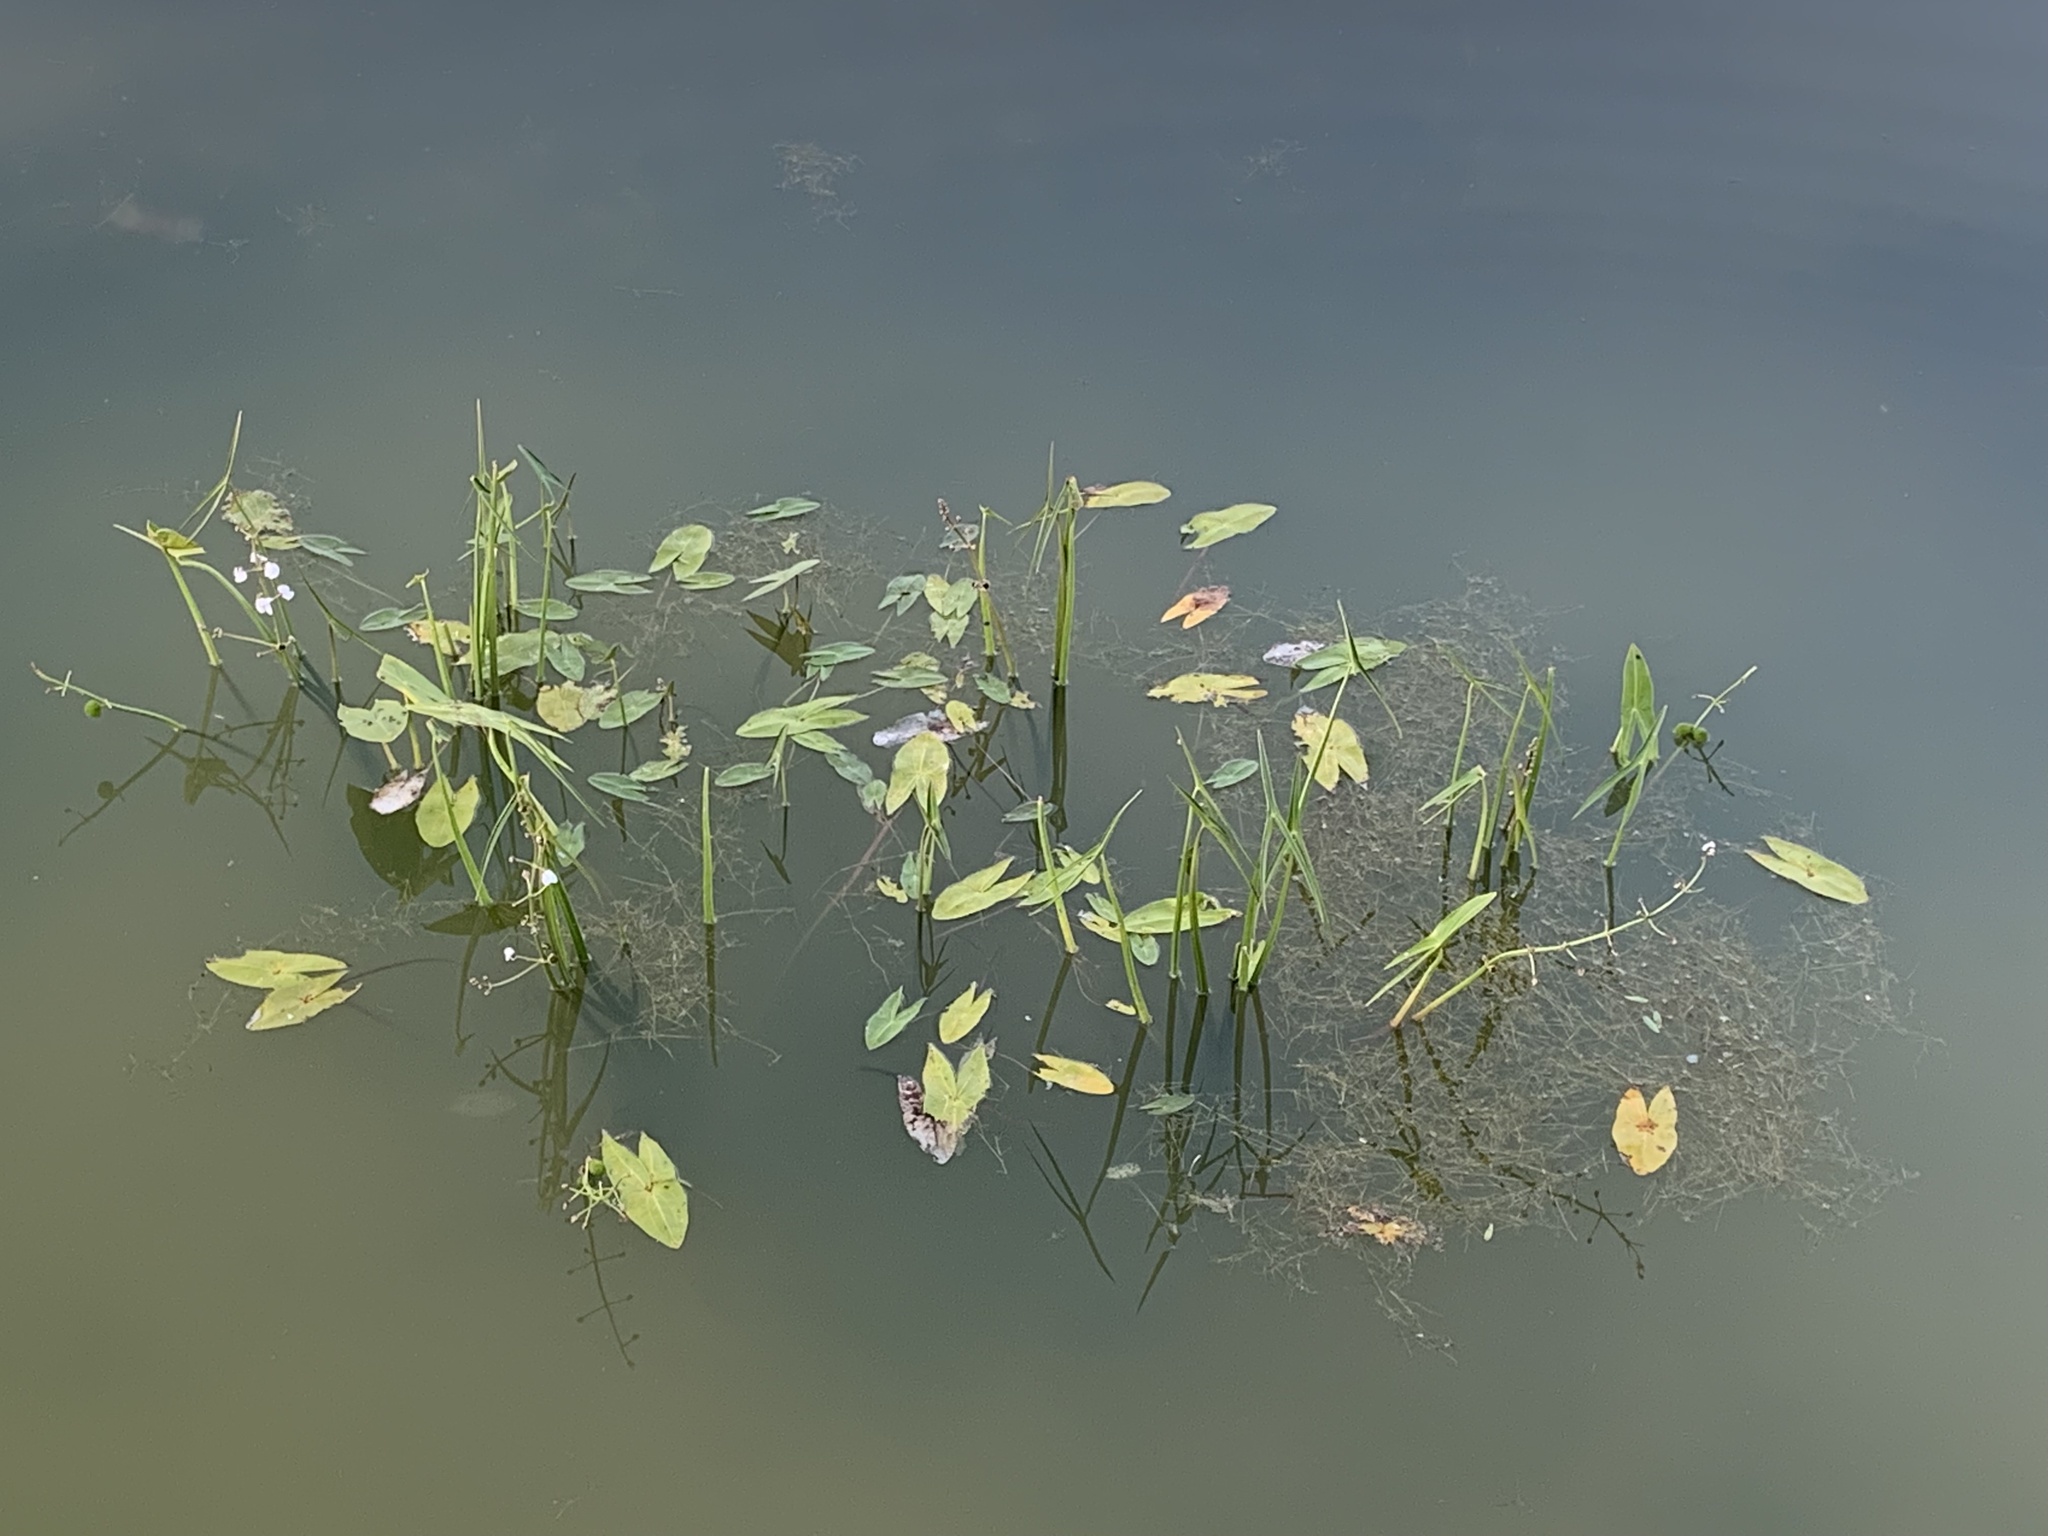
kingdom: Plantae
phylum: Tracheophyta
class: Liliopsida
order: Alismatales
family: Alismataceae
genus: Sagittaria
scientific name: Sagittaria sagittifolia
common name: Arrowhead
